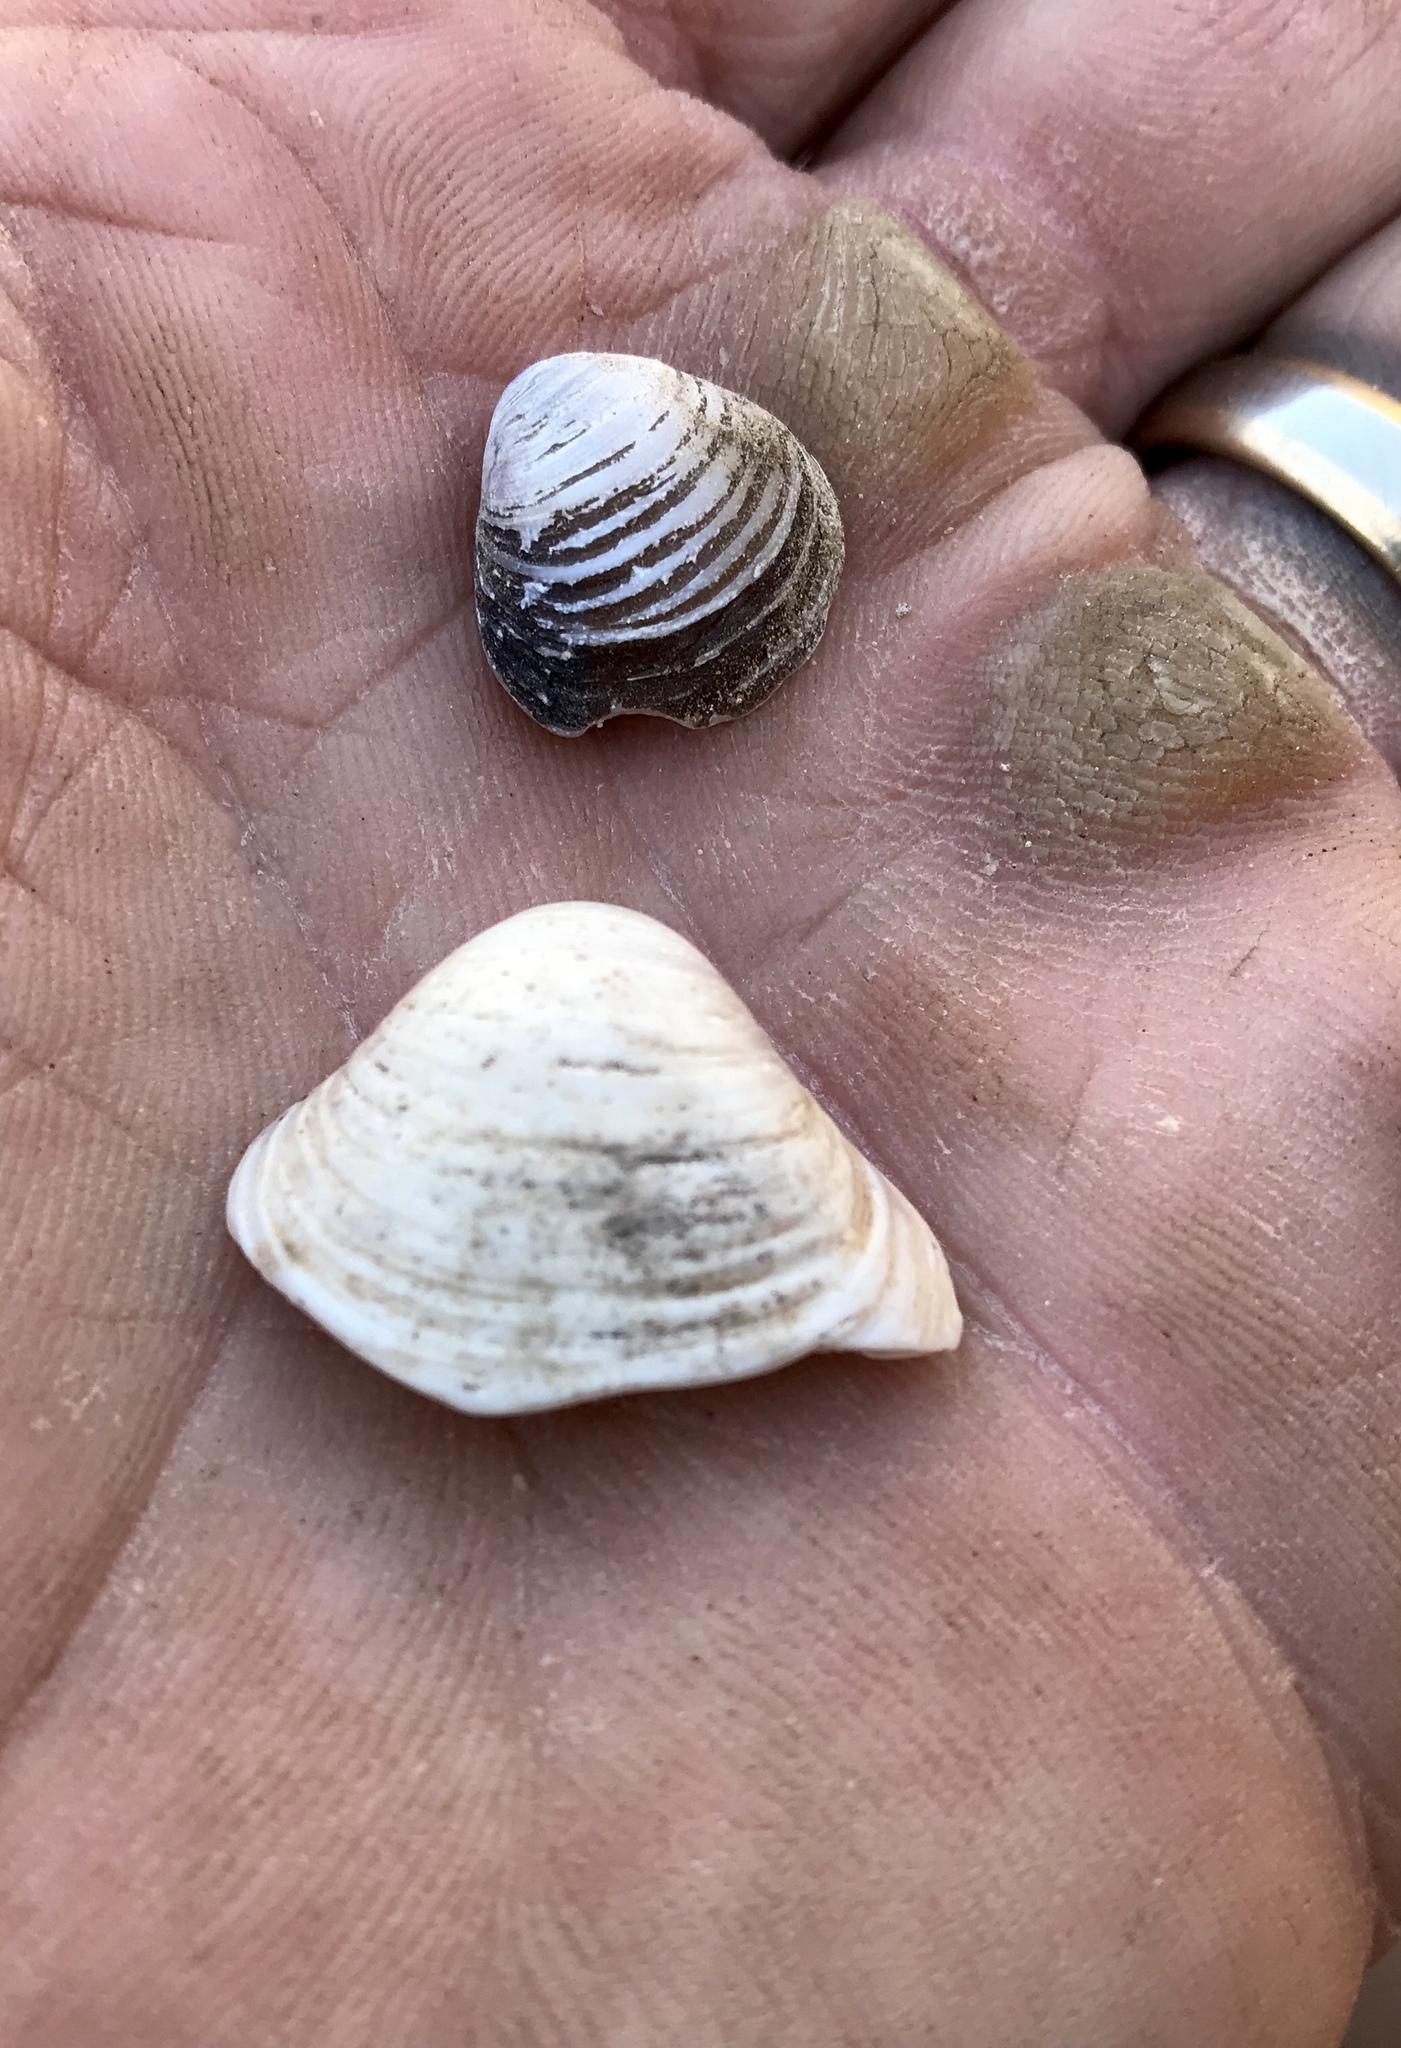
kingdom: Animalia
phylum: Mollusca
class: Bivalvia
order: Venerida
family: Cyrenidae
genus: Corbicula
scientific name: Corbicula fluminea
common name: Asian clam
